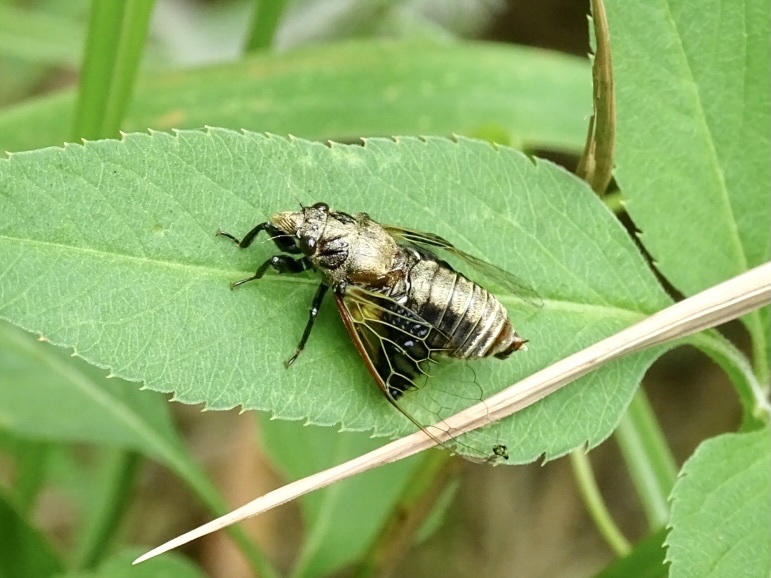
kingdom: Animalia
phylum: Arthropoda
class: Insecta
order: Hemiptera
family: Cicadidae
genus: Mogannia
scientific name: Mogannia nasalis
